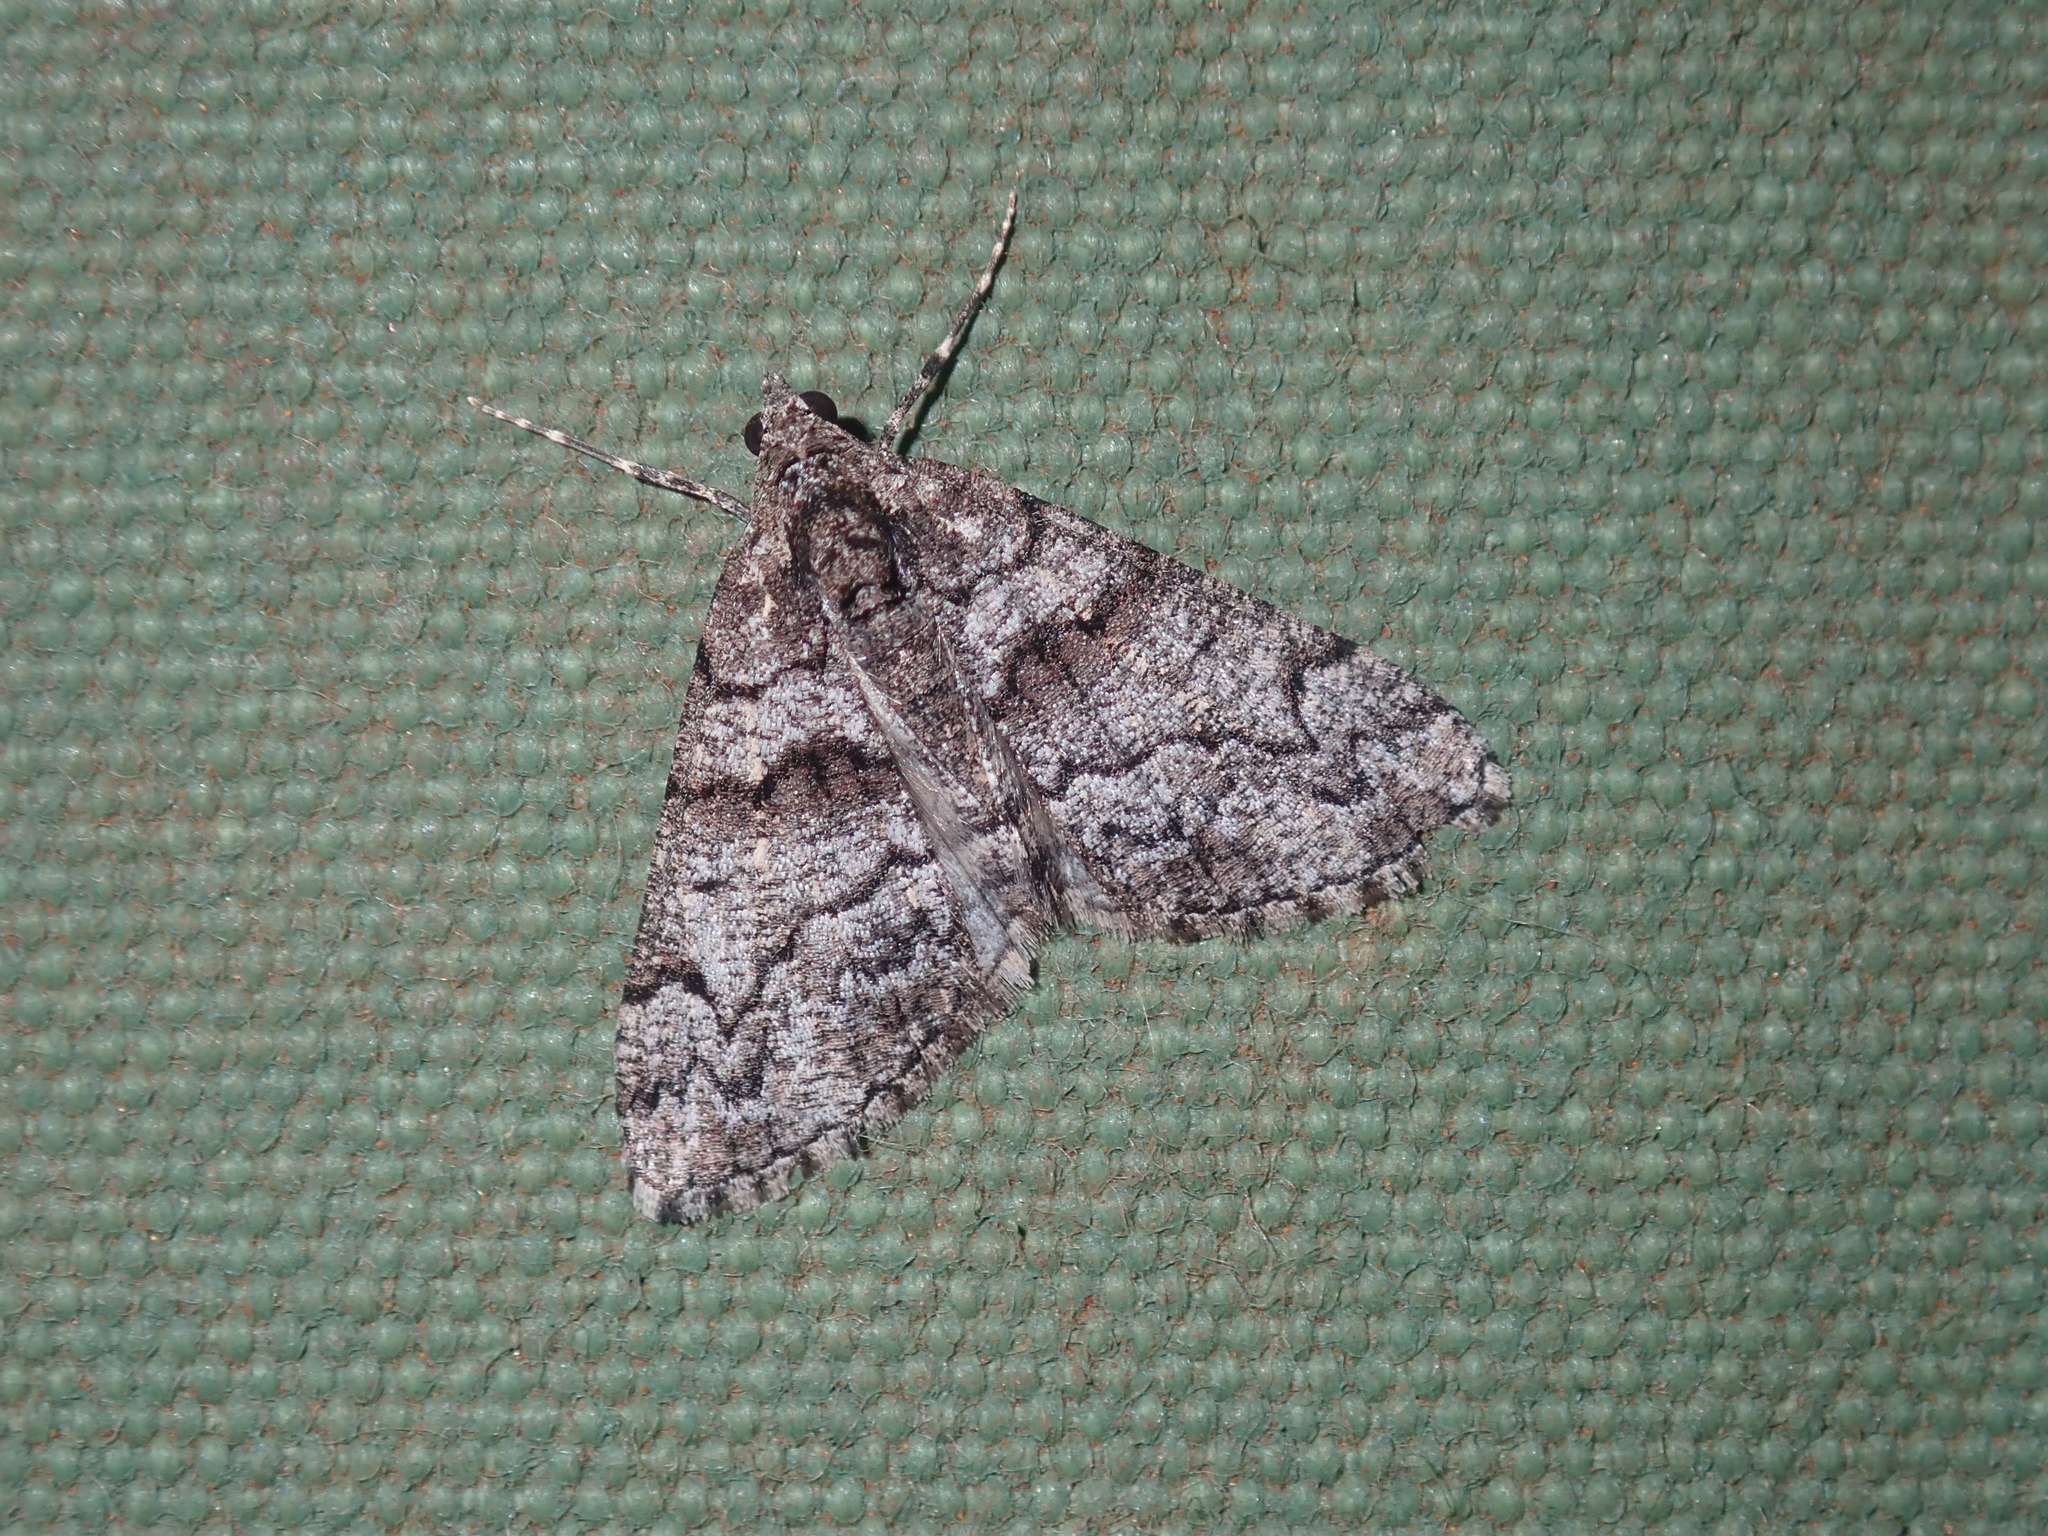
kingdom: Animalia
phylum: Arthropoda
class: Insecta
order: Lepidoptera
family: Geometridae
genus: Lipogya
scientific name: Lipogya exprimataria
